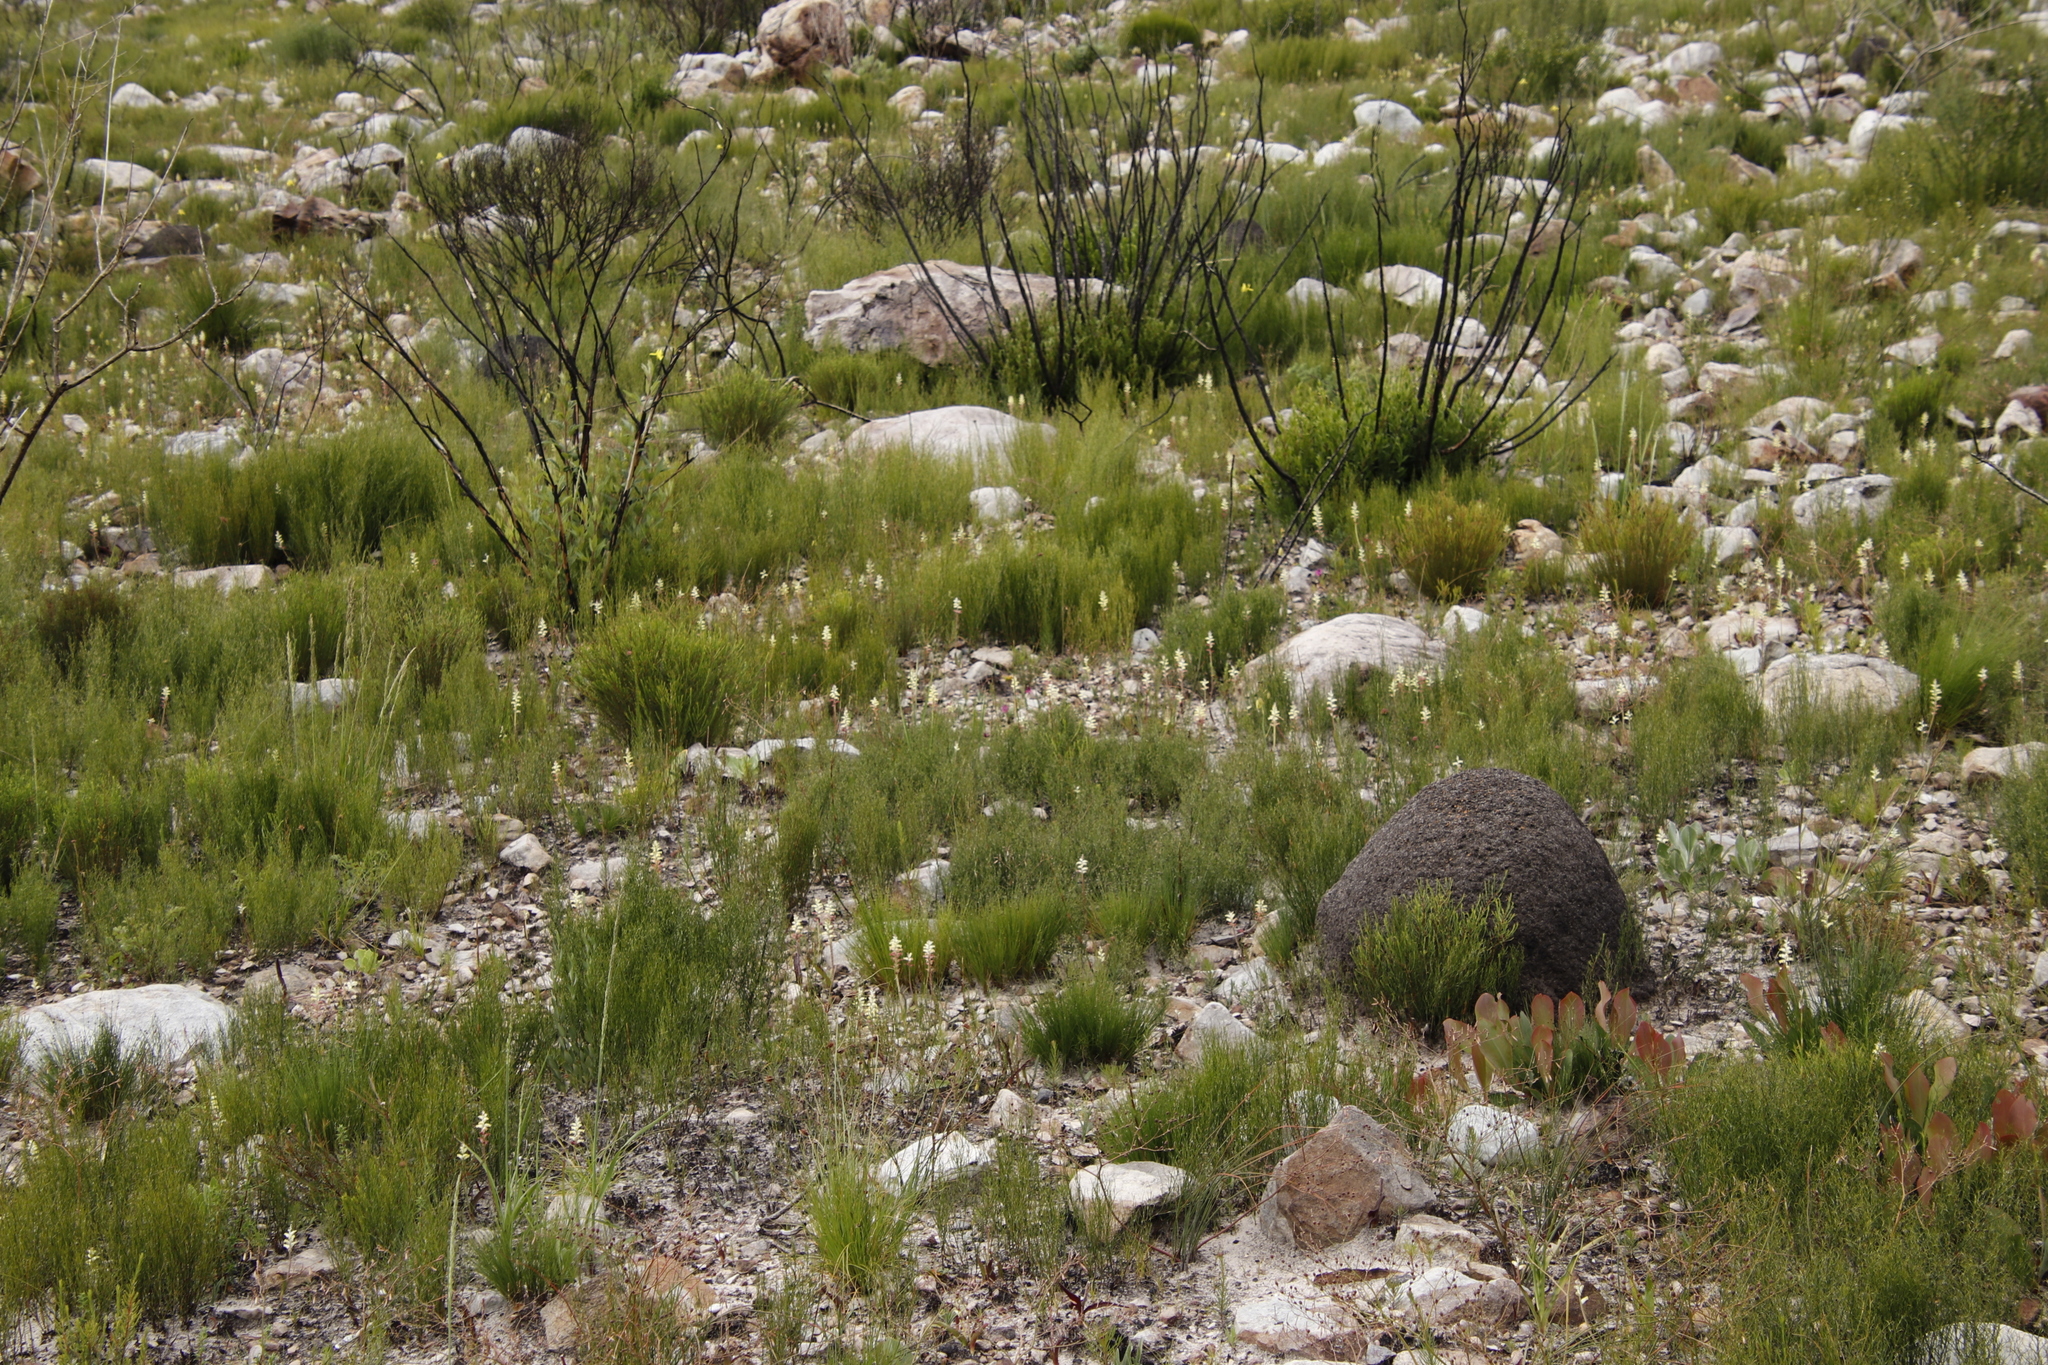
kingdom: Animalia
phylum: Arthropoda
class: Insecta
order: Blattodea
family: Termitidae
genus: Amitermes
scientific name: Amitermes hastatus
